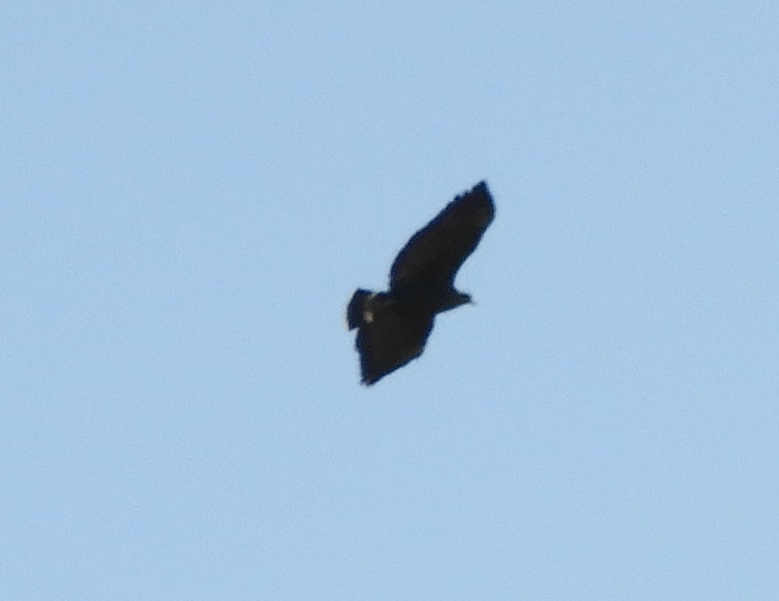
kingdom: Animalia
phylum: Chordata
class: Aves
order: Accipitriformes
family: Accipitridae
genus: Buteogallus
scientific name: Buteogallus anthracinus
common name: Common black hawk
